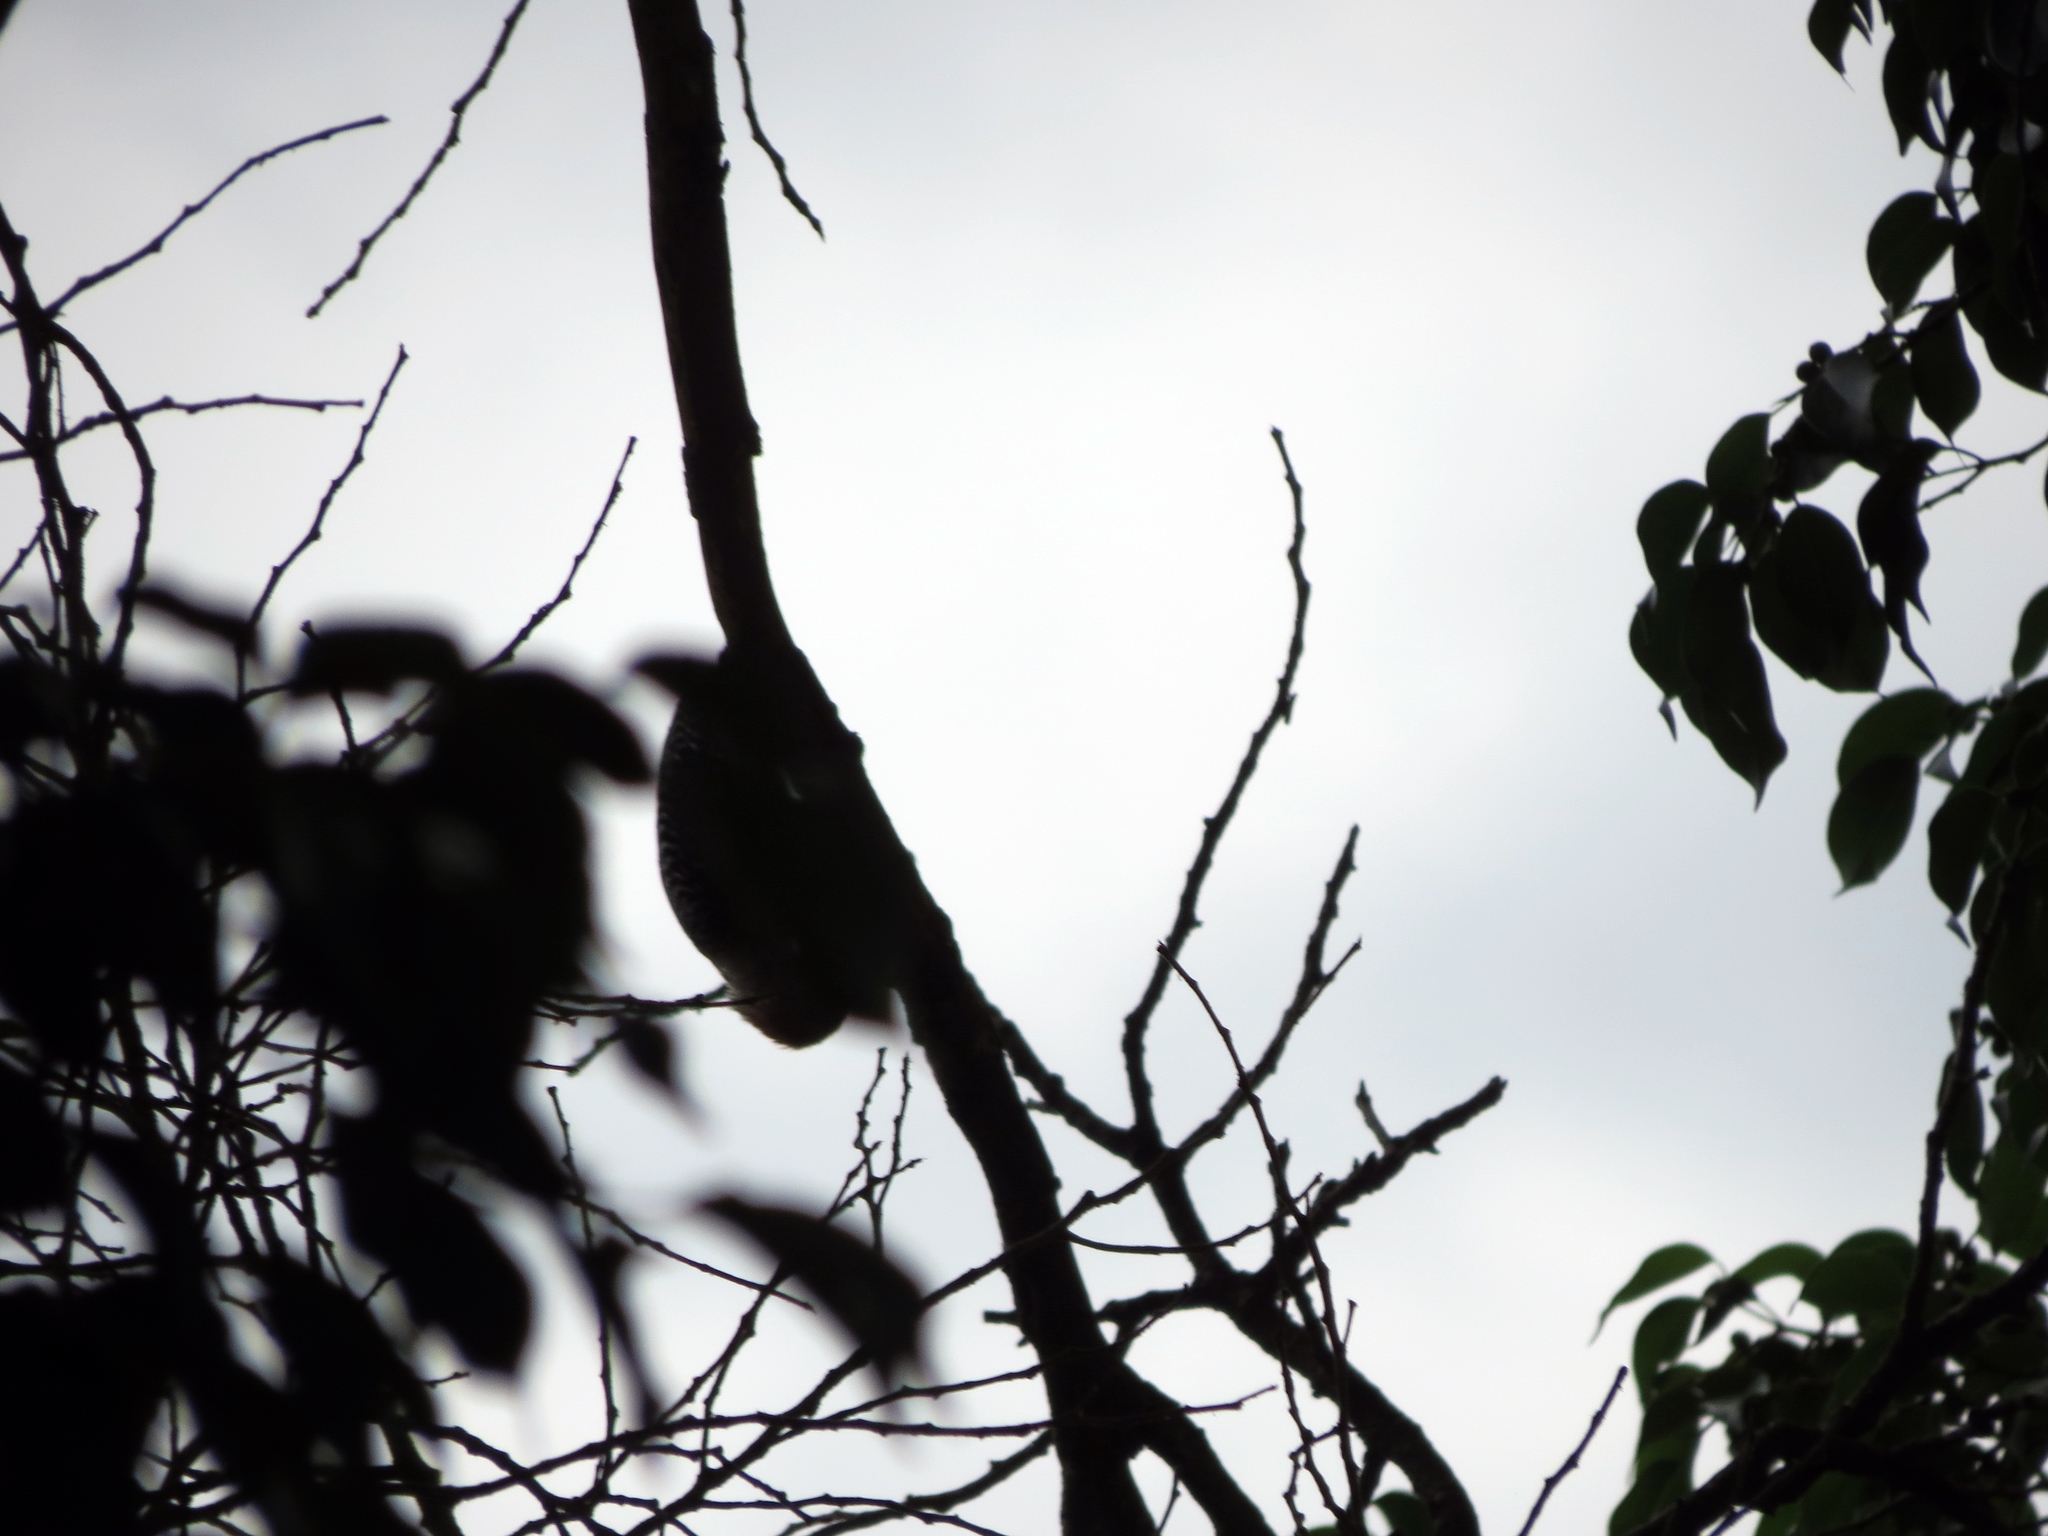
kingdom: Animalia
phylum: Chordata
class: Aves
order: Piciformes
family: Picidae
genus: Melanerpes
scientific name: Melanerpes rubricapillus
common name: Red-crowned woodpecker
